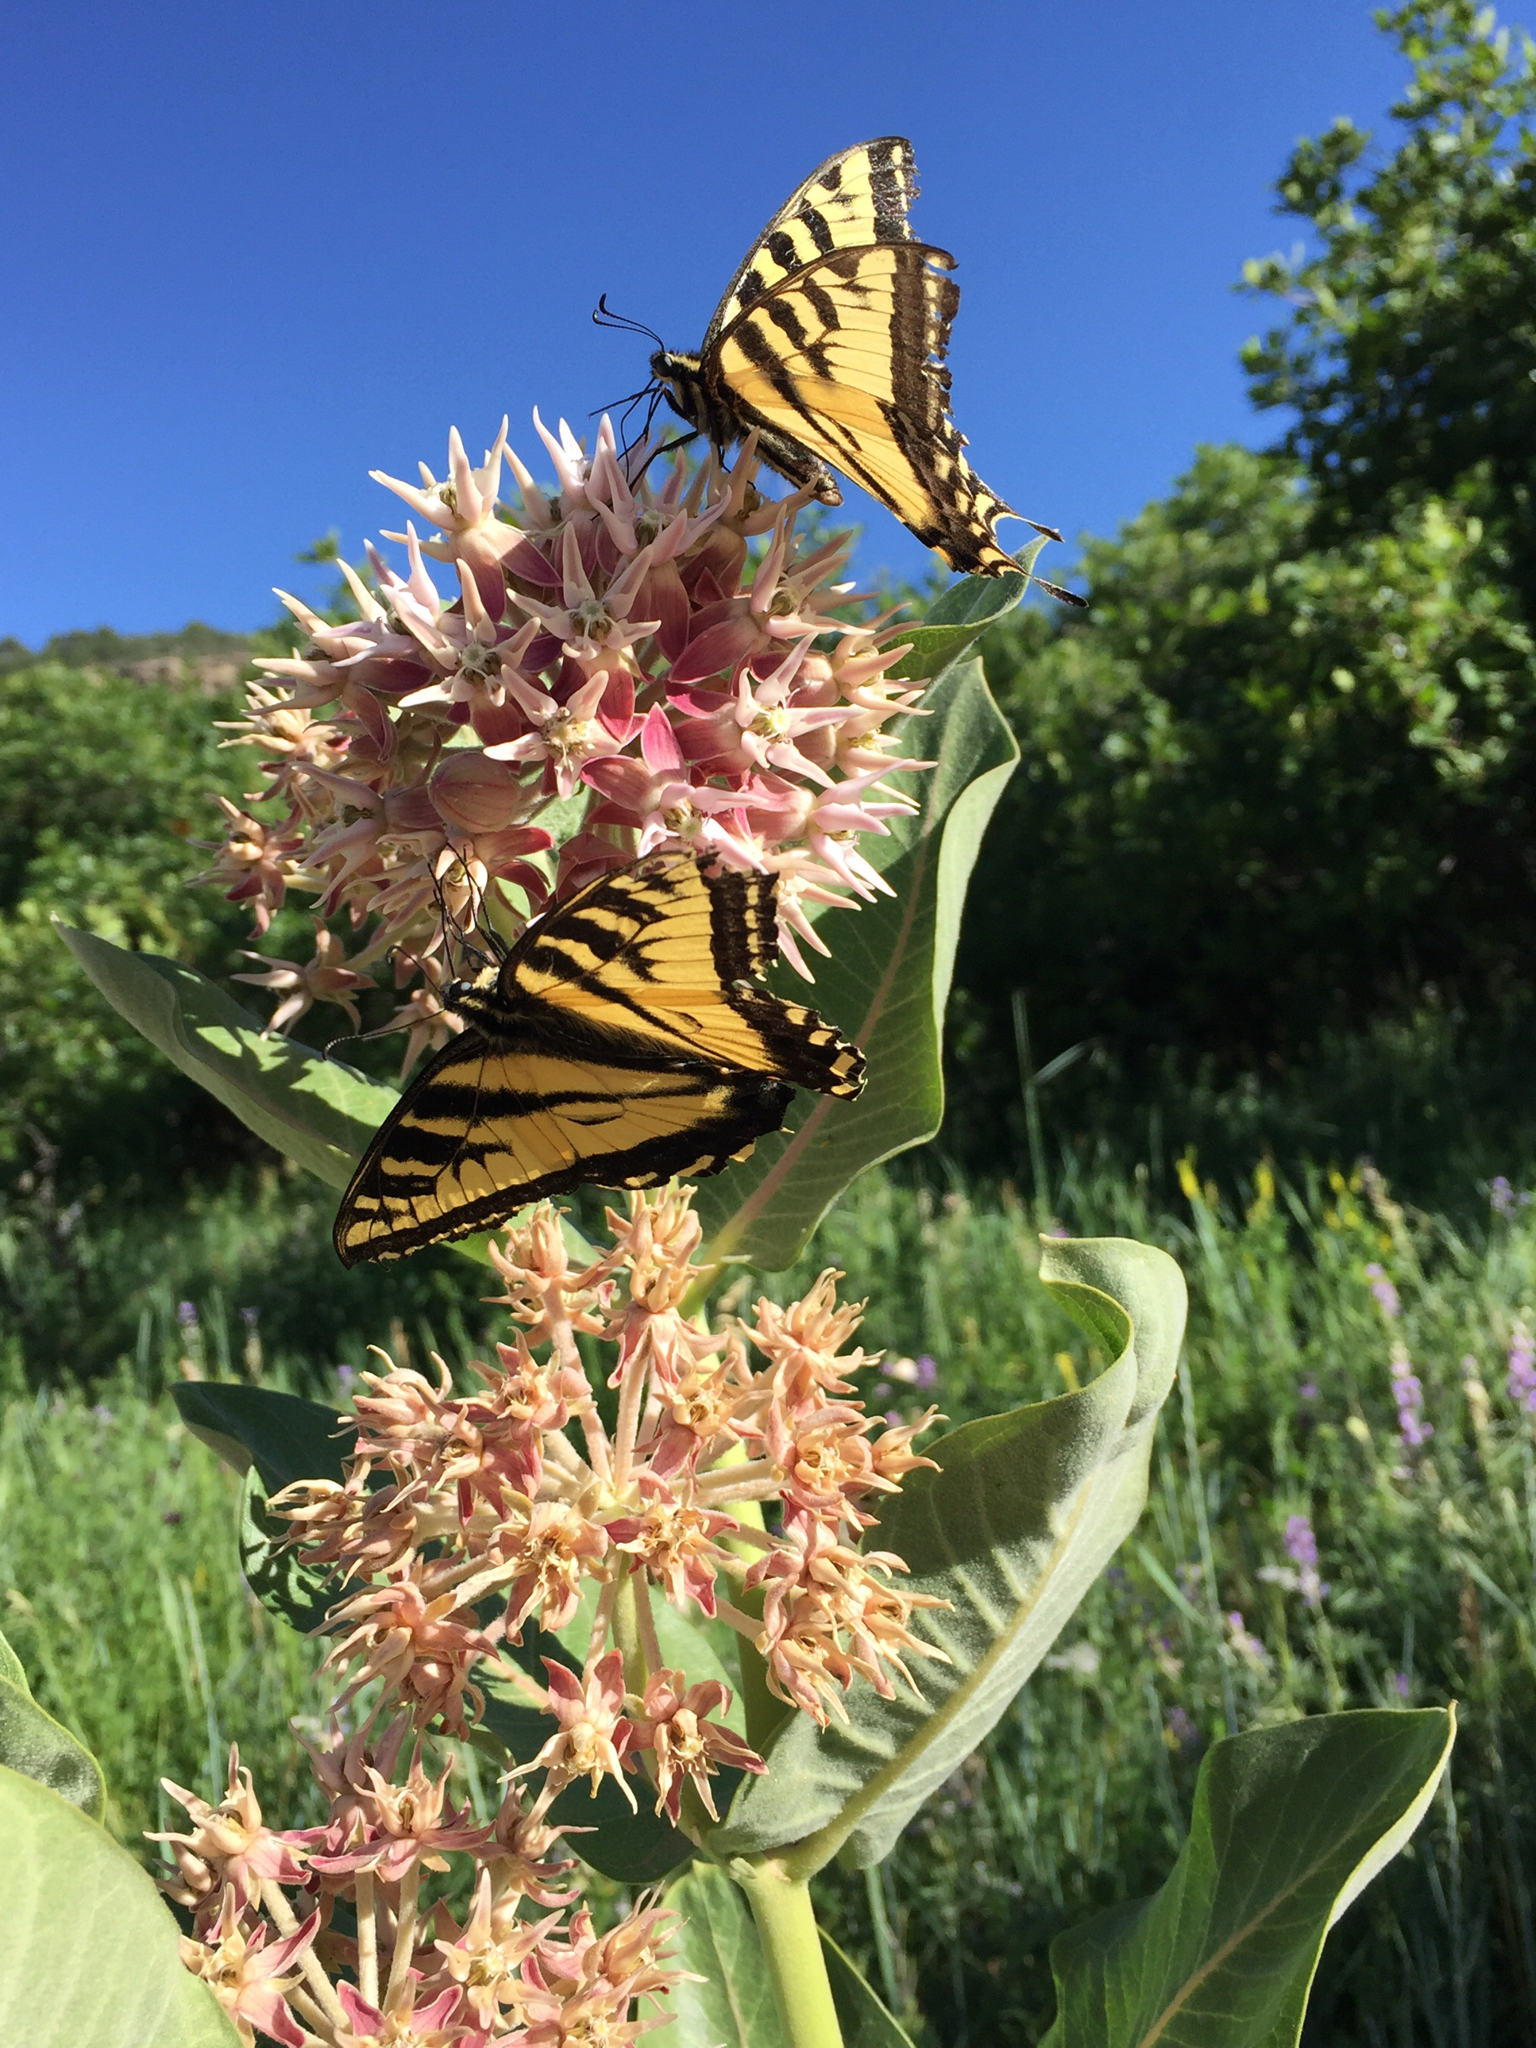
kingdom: Animalia
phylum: Arthropoda
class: Insecta
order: Lepidoptera
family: Papilionidae
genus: Papilio
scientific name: Papilio rutulus
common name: Western tiger swallowtail
